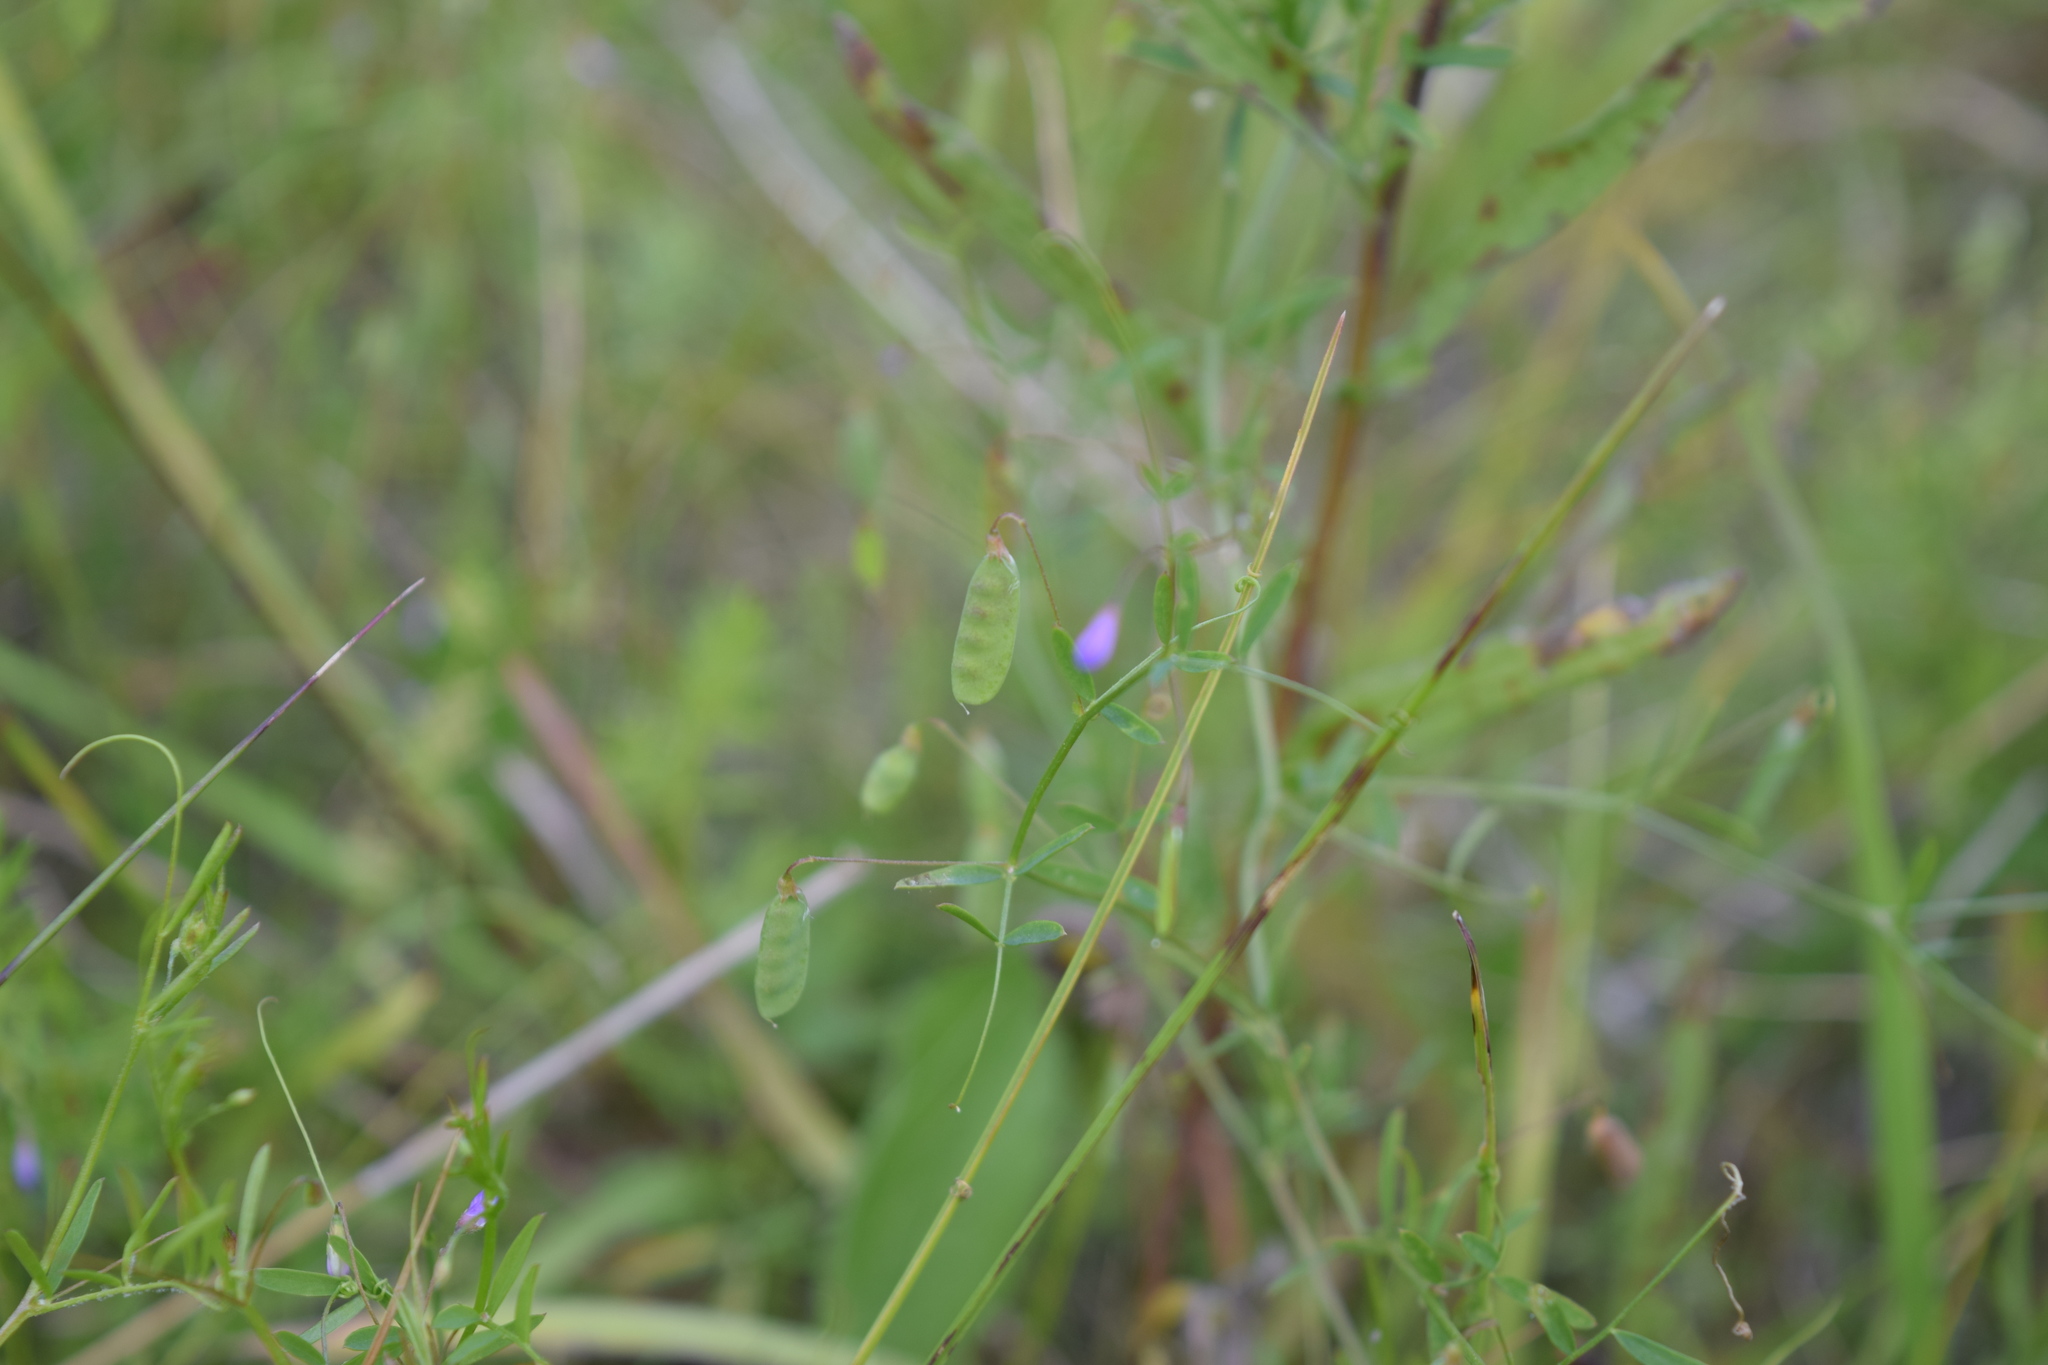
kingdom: Plantae
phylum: Tracheophyta
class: Magnoliopsida
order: Fabales
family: Fabaceae
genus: Vicia
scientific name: Vicia tetrasperma
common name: Smooth tare
